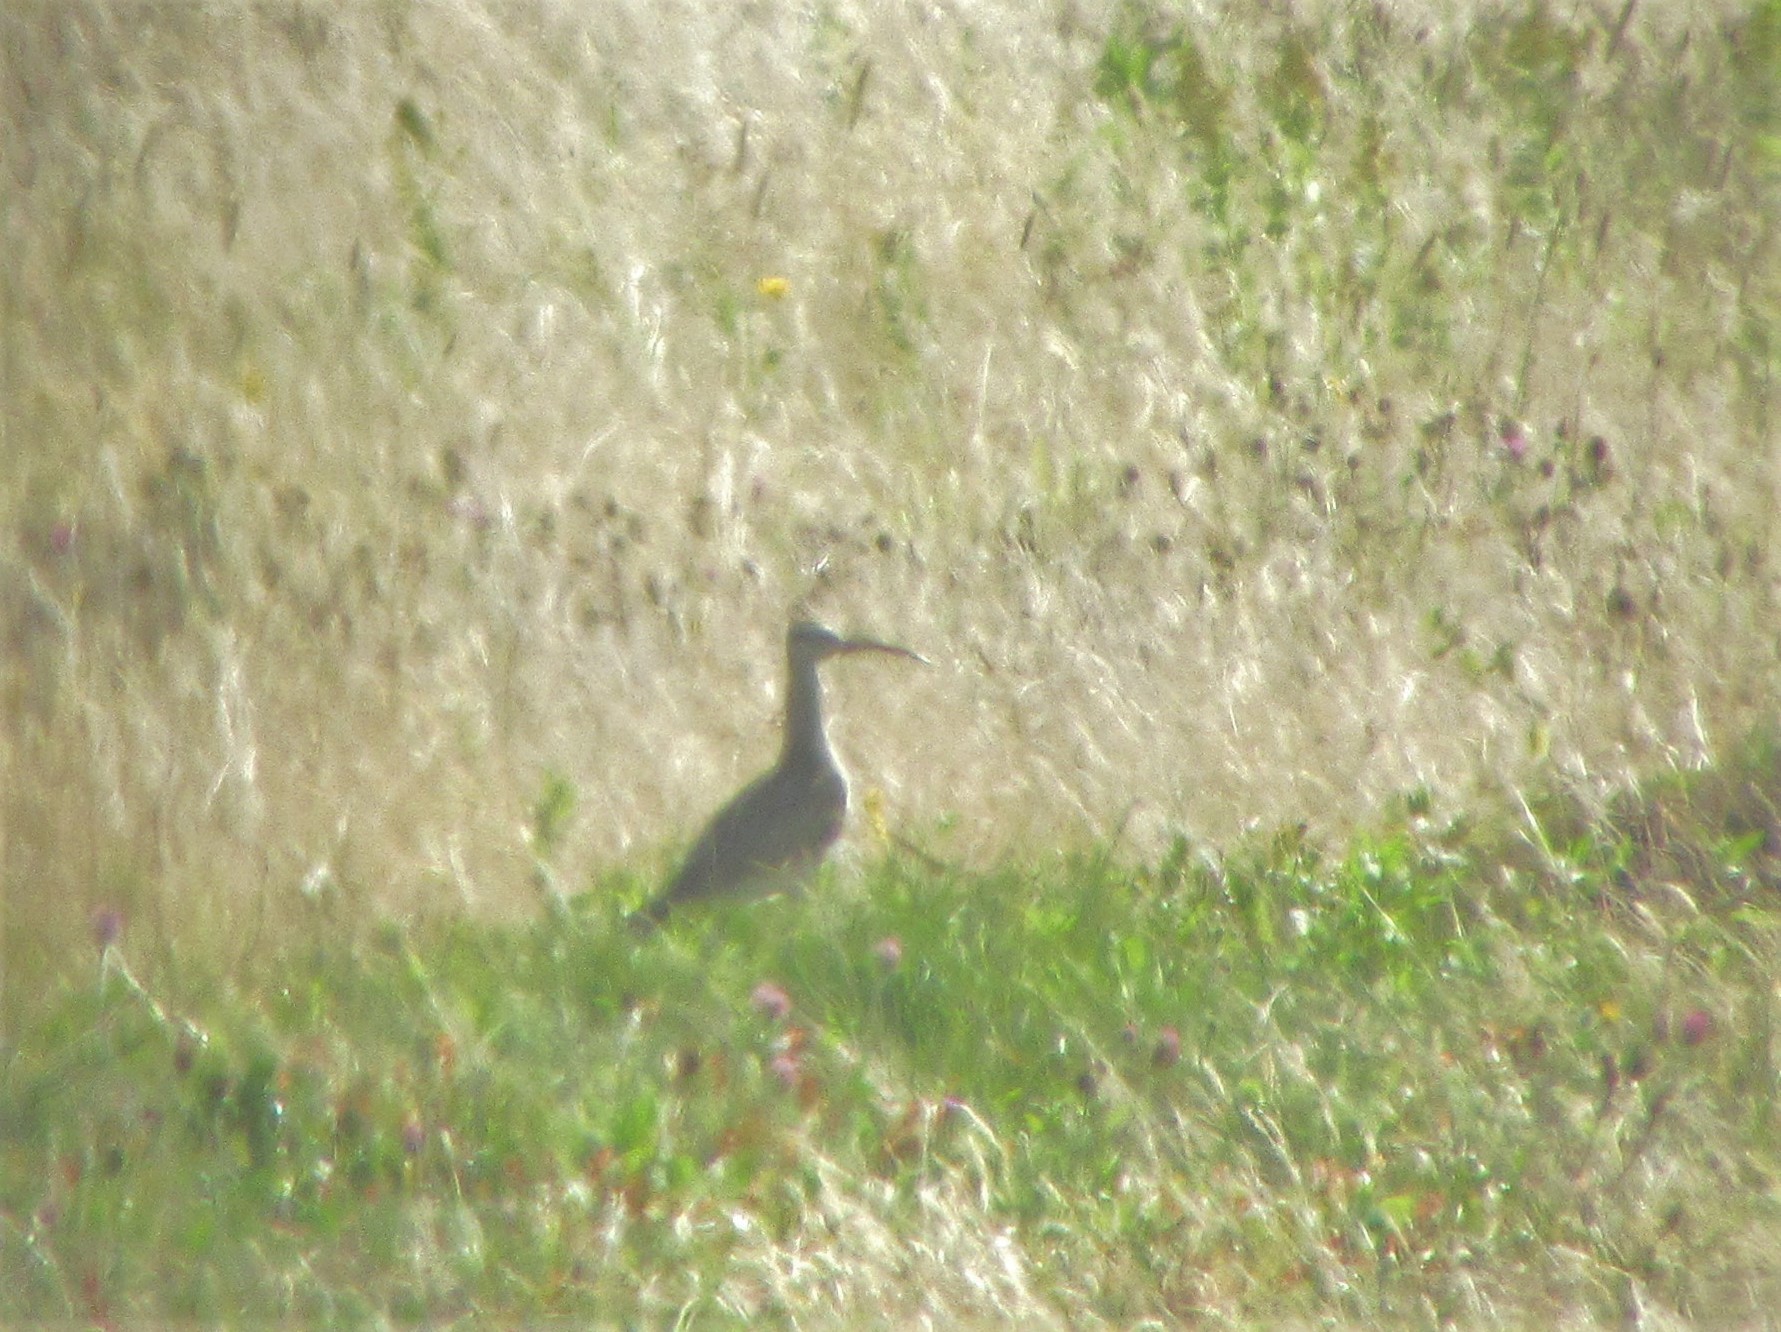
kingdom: Animalia
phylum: Chordata
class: Aves
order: Charadriiformes
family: Scolopacidae
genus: Numenius
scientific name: Numenius phaeopus
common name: Whimbrel
